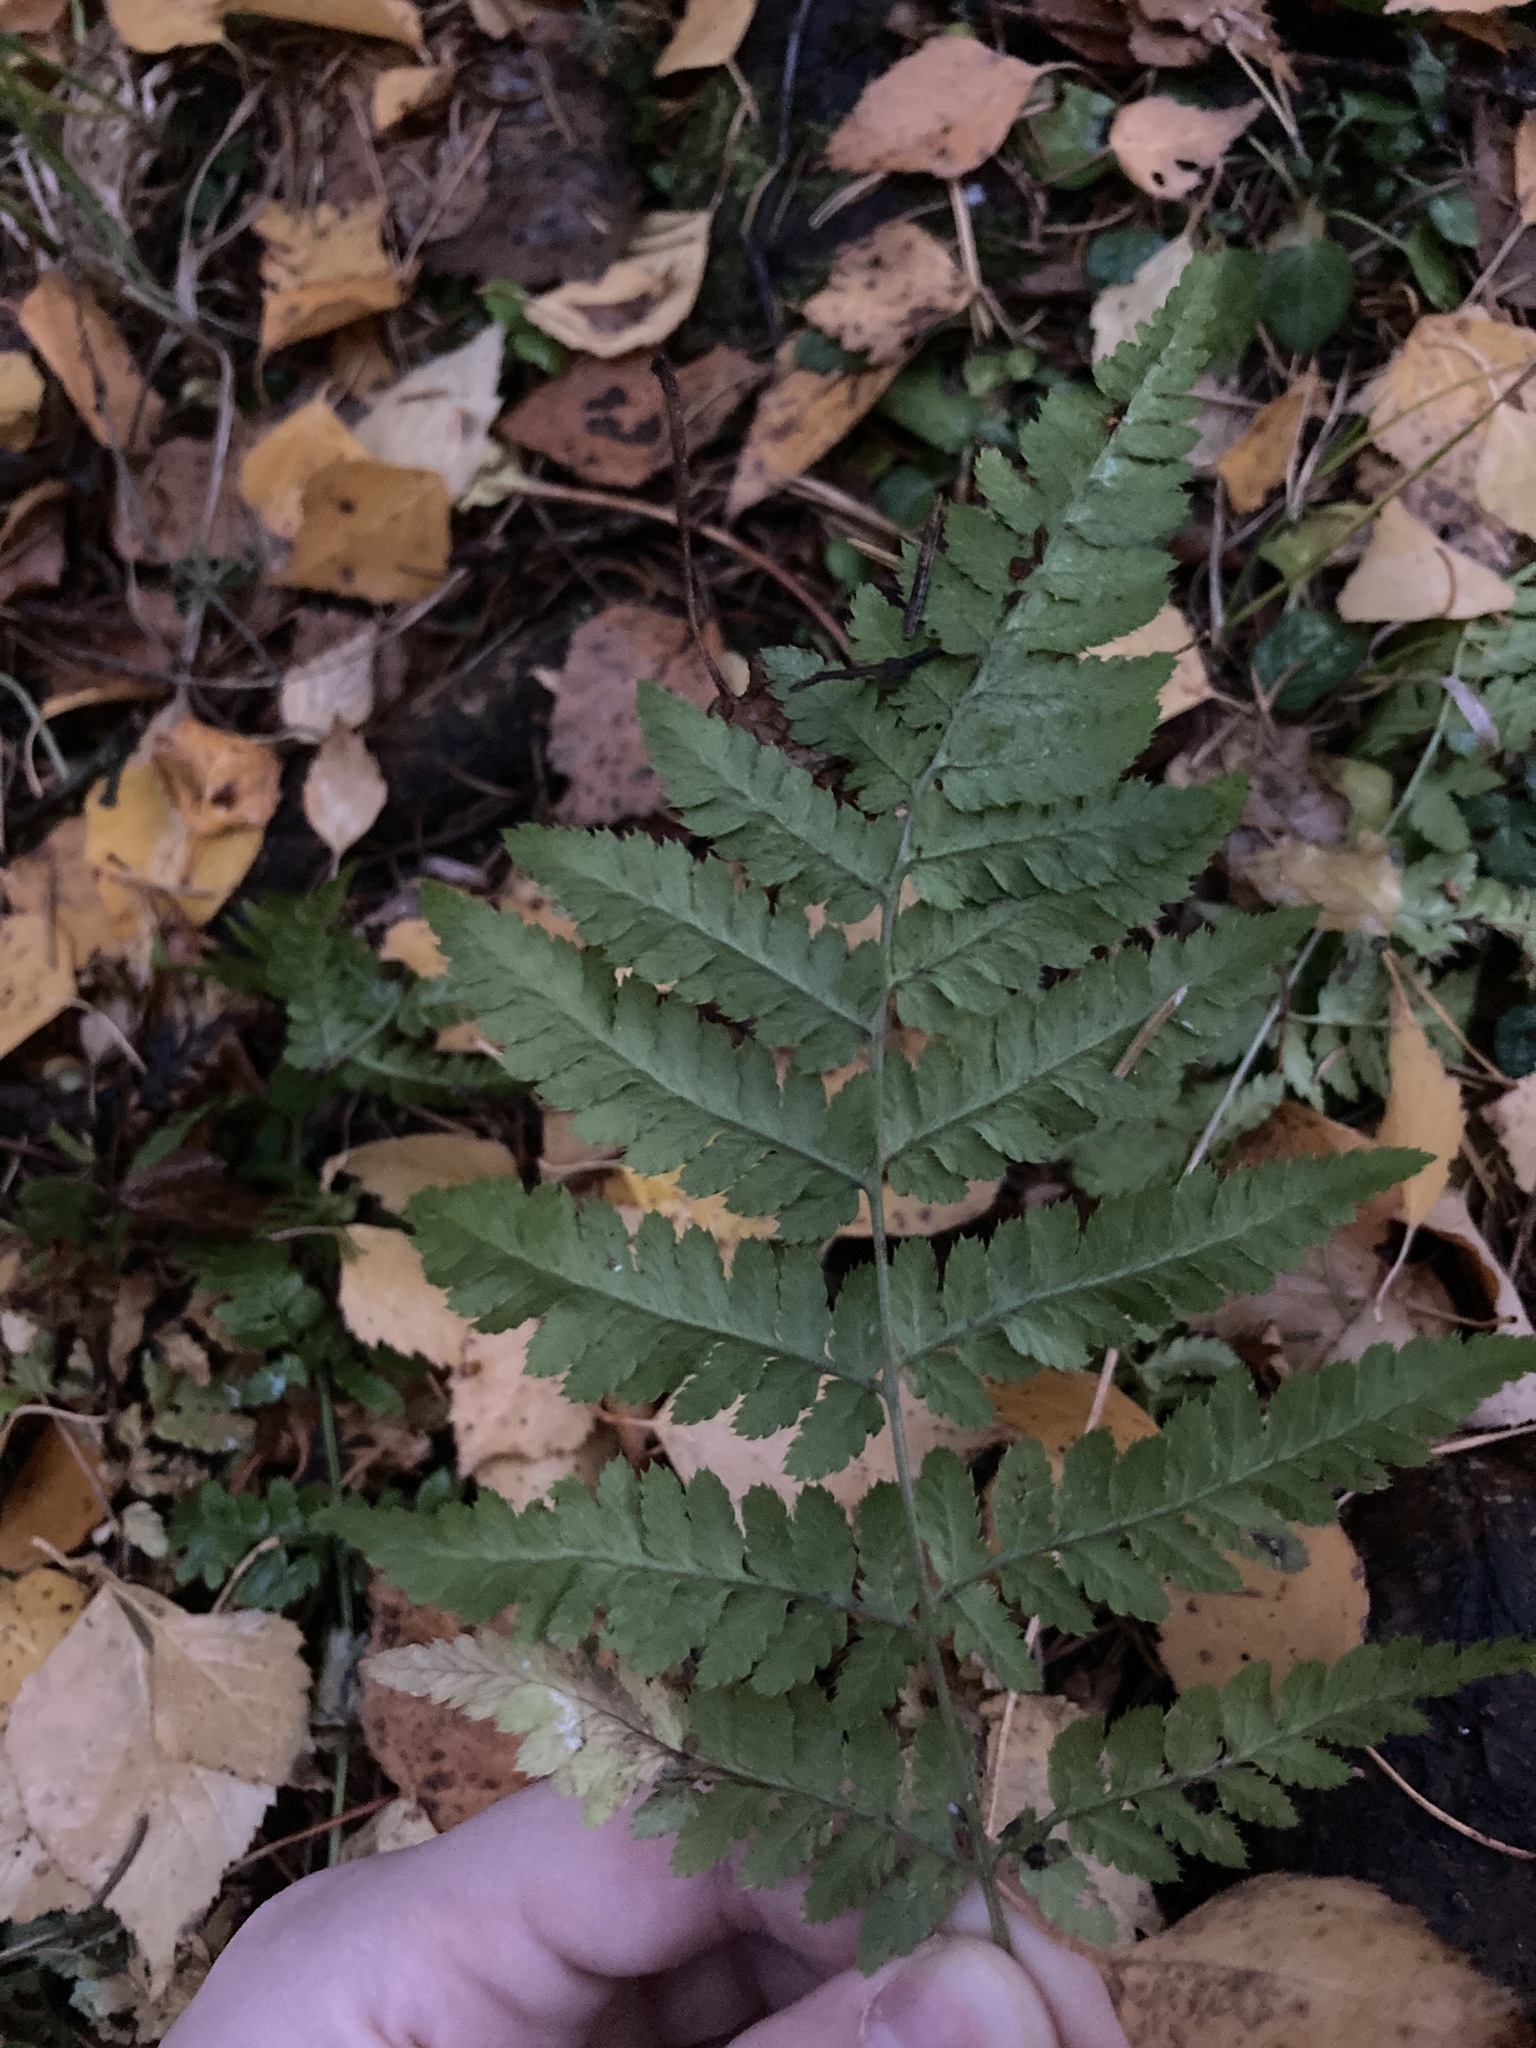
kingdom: Plantae
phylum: Tracheophyta
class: Polypodiopsida
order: Polypodiales
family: Dryopteridaceae
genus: Dryopteris
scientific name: Dryopteris carthusiana
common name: Narrow buckler-fern
